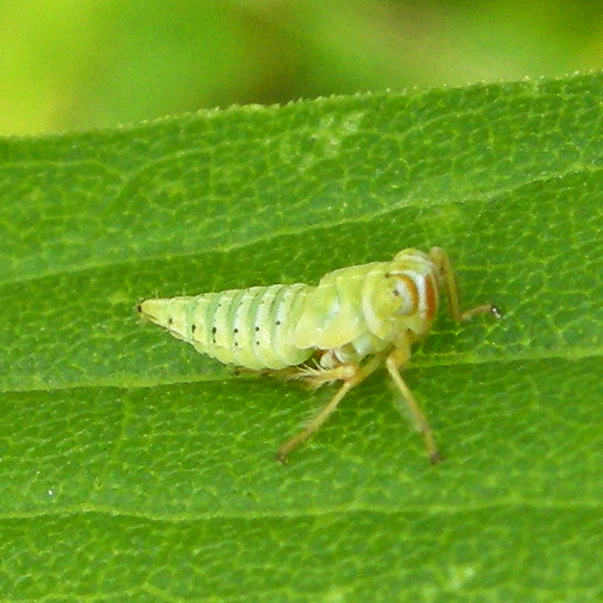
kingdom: Animalia
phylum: Arthropoda
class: Insecta
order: Hemiptera
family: Cicadellidae
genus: Jikradia
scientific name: Jikradia olitoria
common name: Coppery leafhopper
